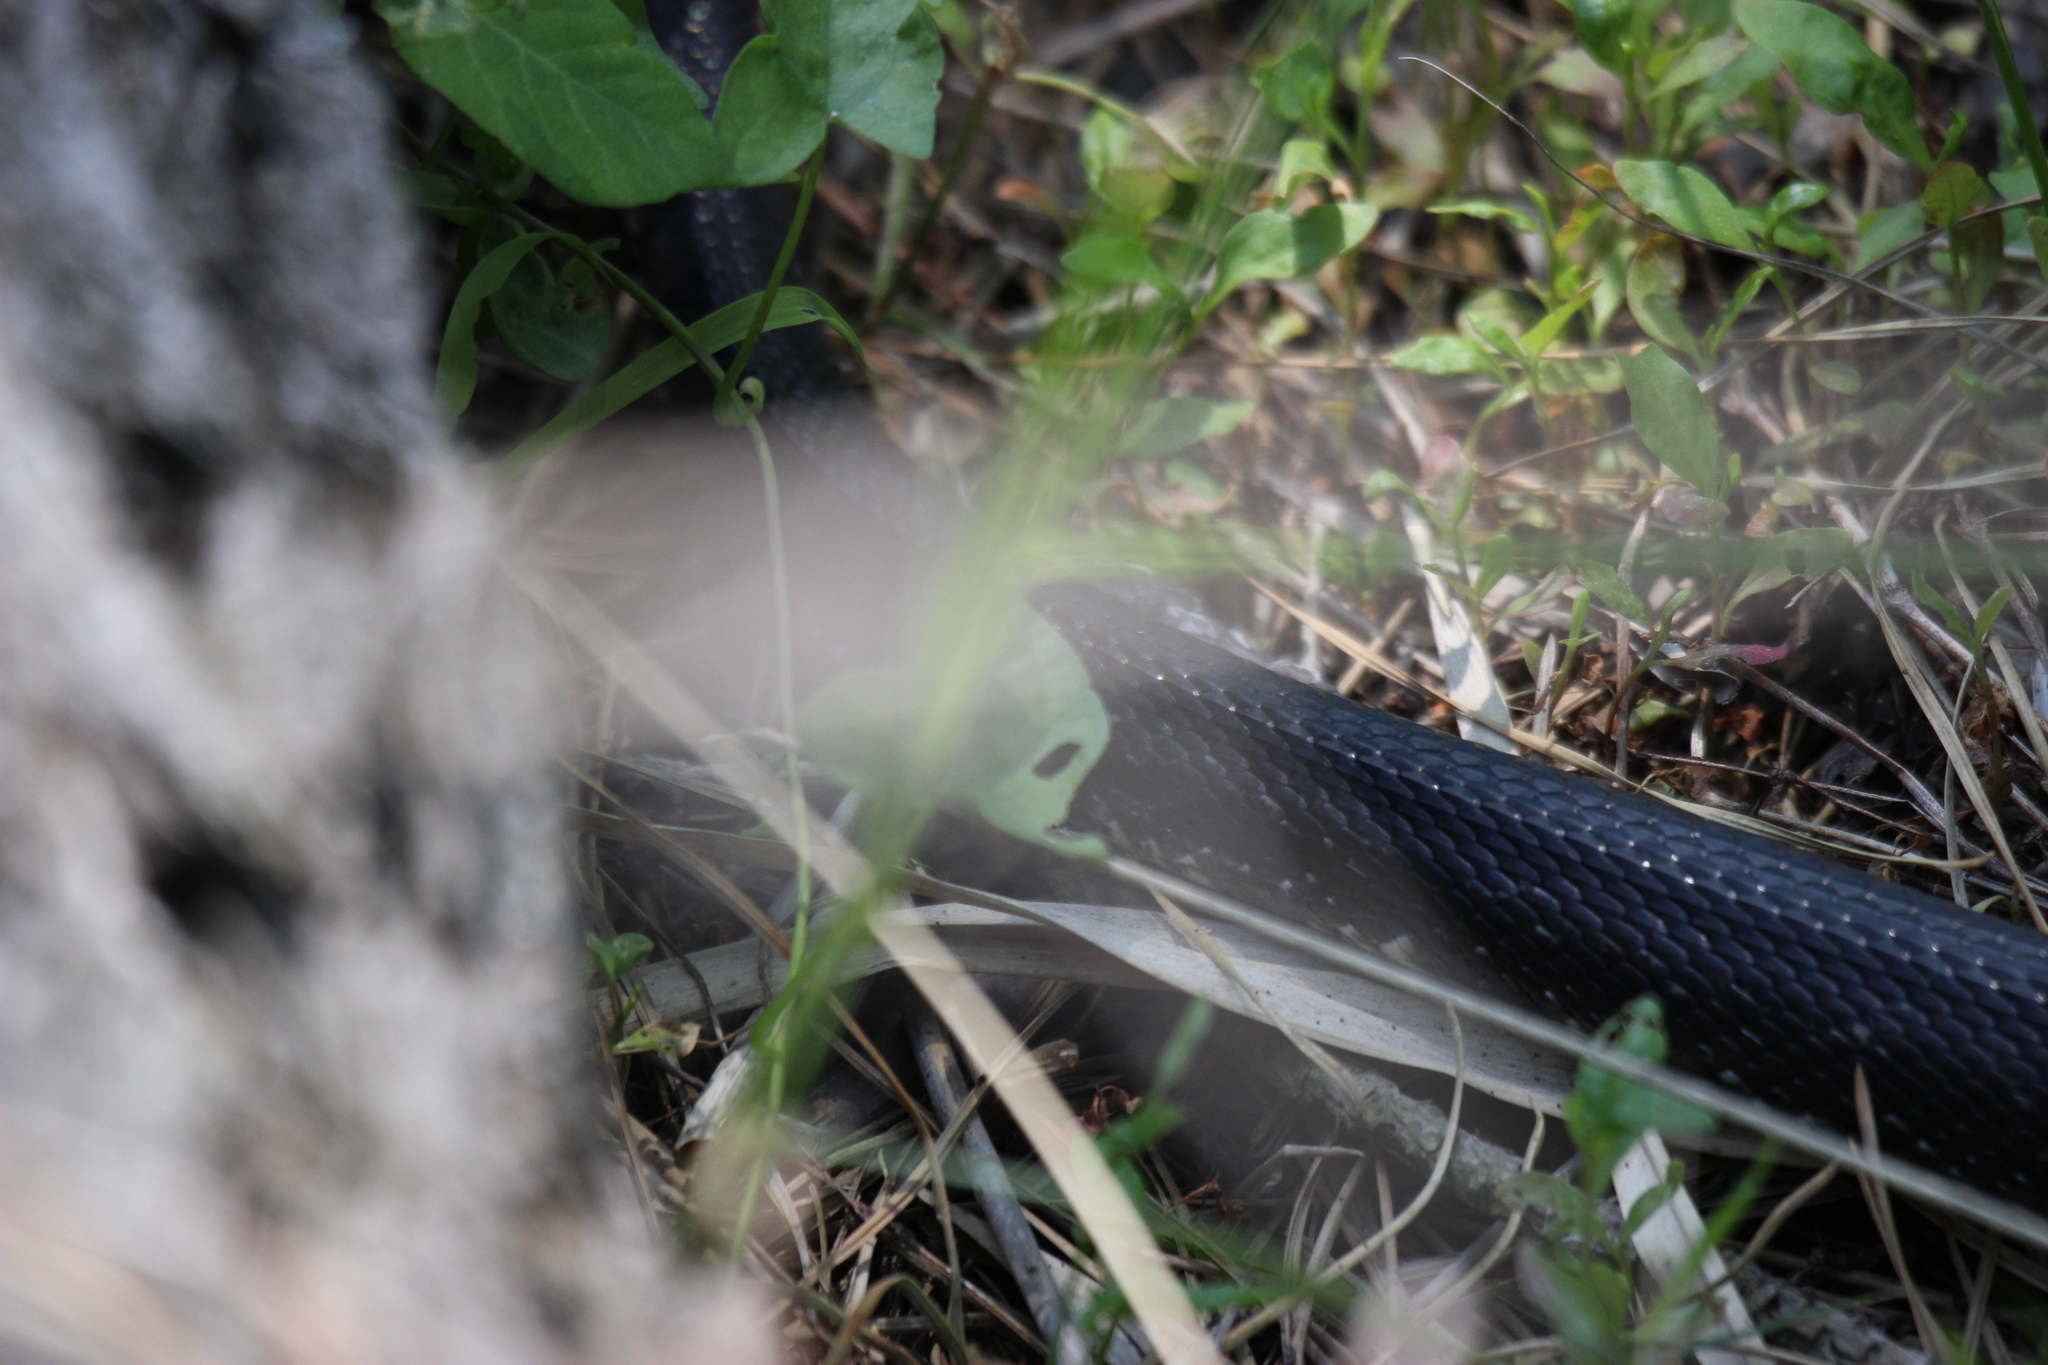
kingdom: Animalia
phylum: Chordata
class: Squamata
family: Colubridae
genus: Pantherophis
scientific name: Pantherophis alleghaniensis
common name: Eastern rat snake
